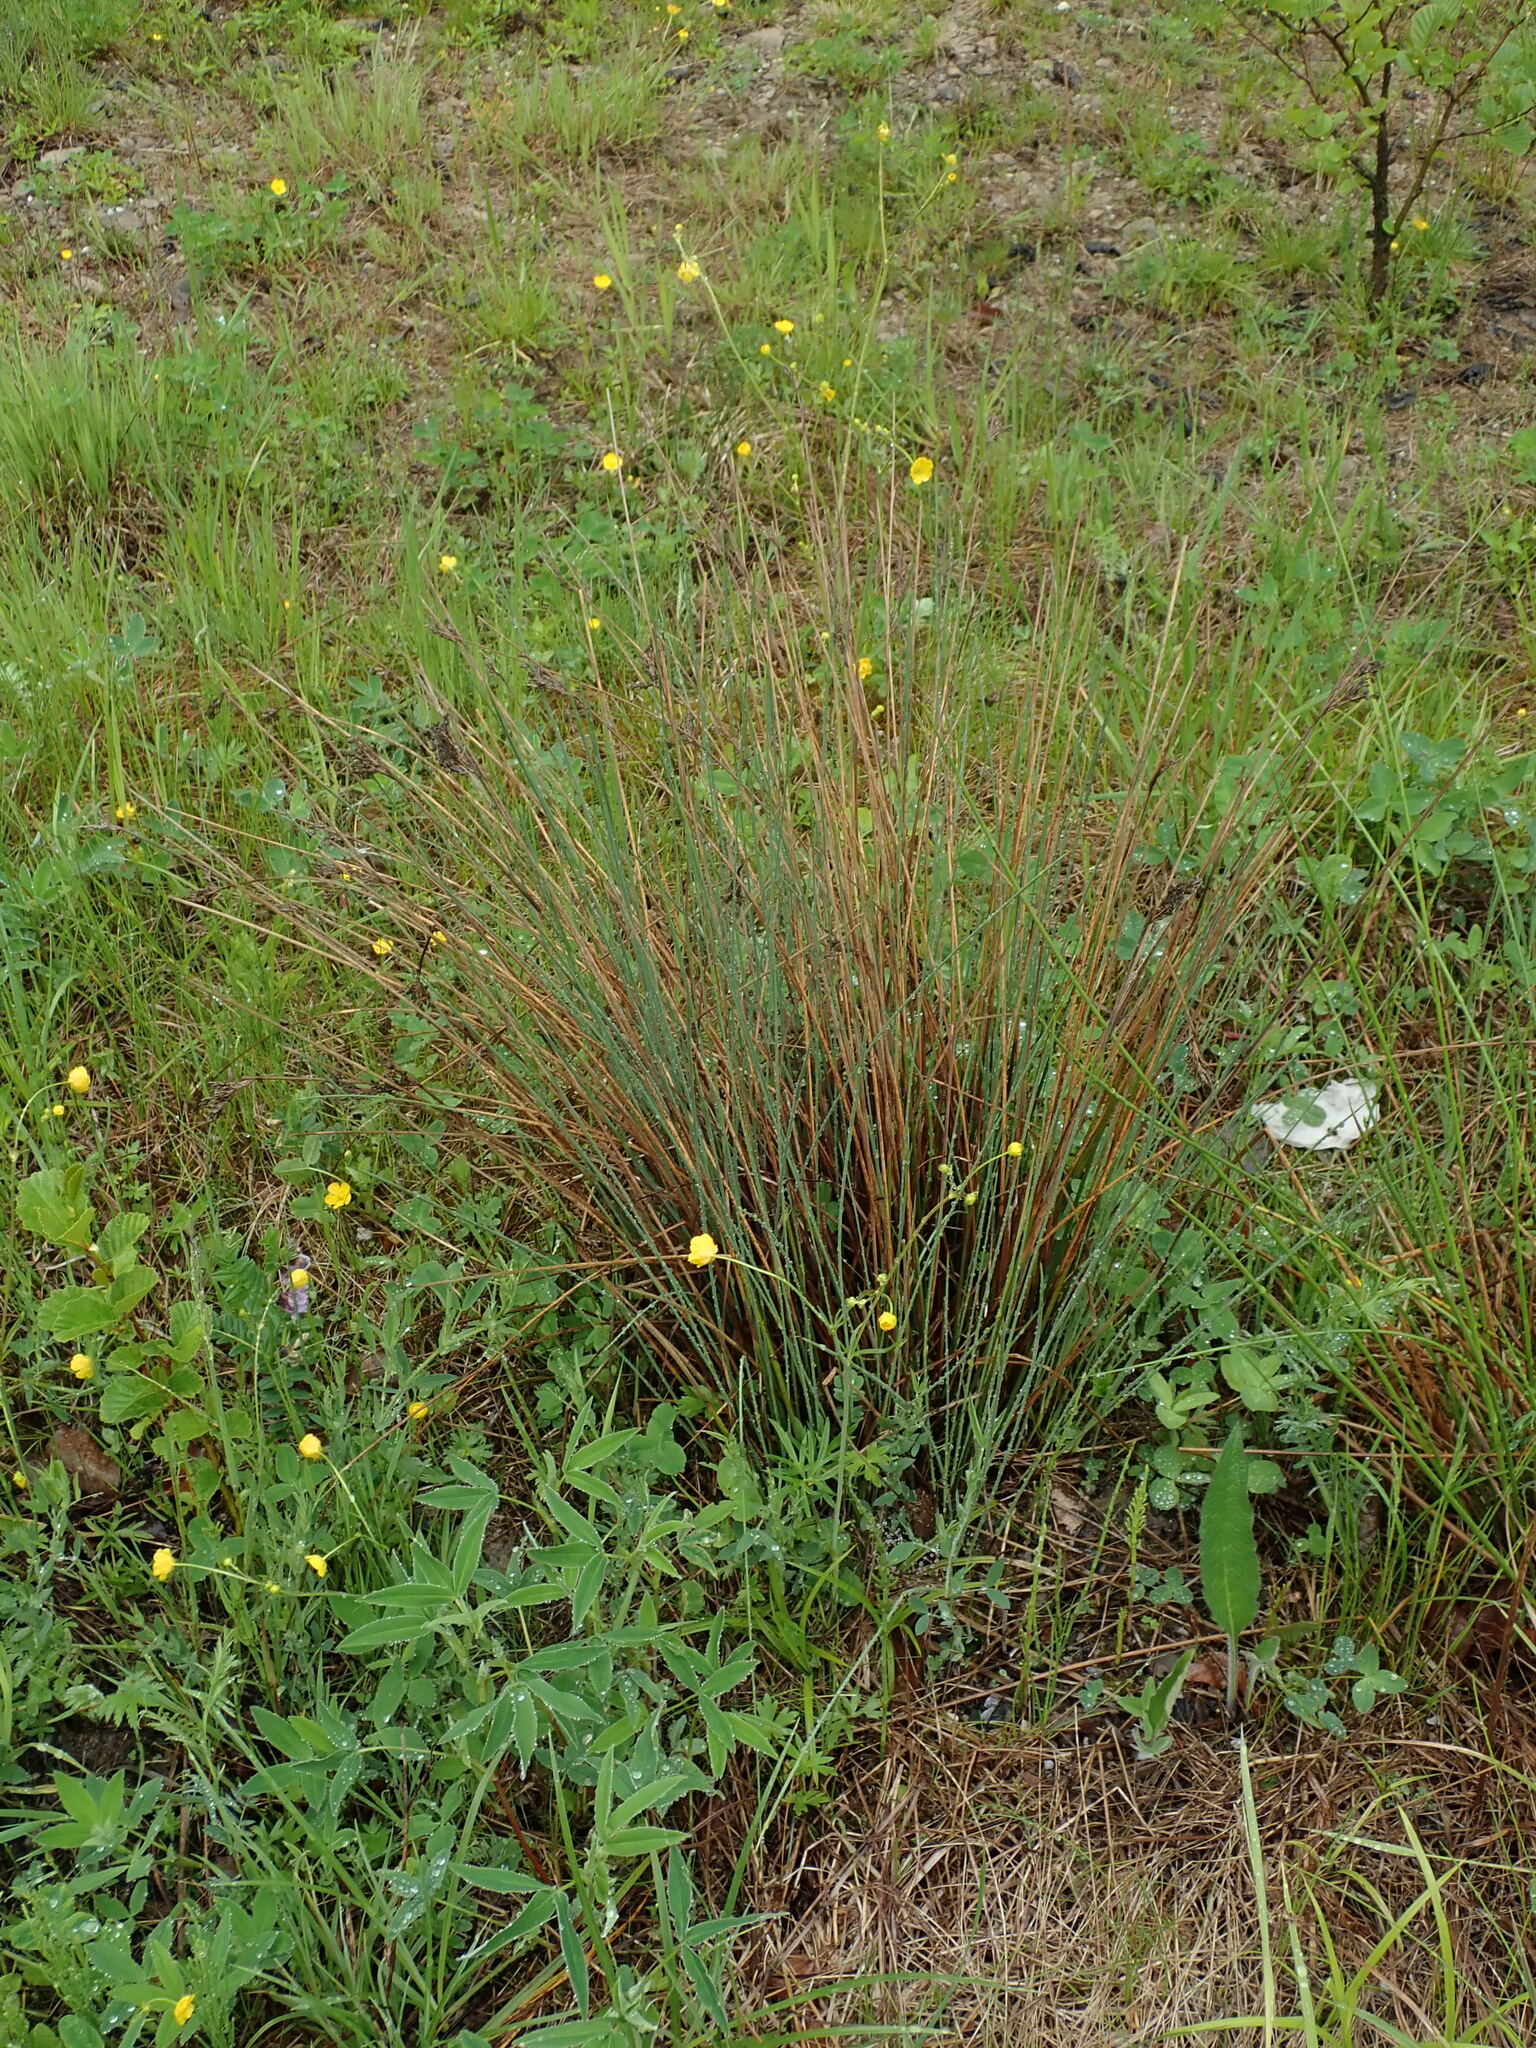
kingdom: Plantae
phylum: Tracheophyta
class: Liliopsida
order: Poales
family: Juncaceae
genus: Juncus
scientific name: Juncus inflexus
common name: Hard rush
